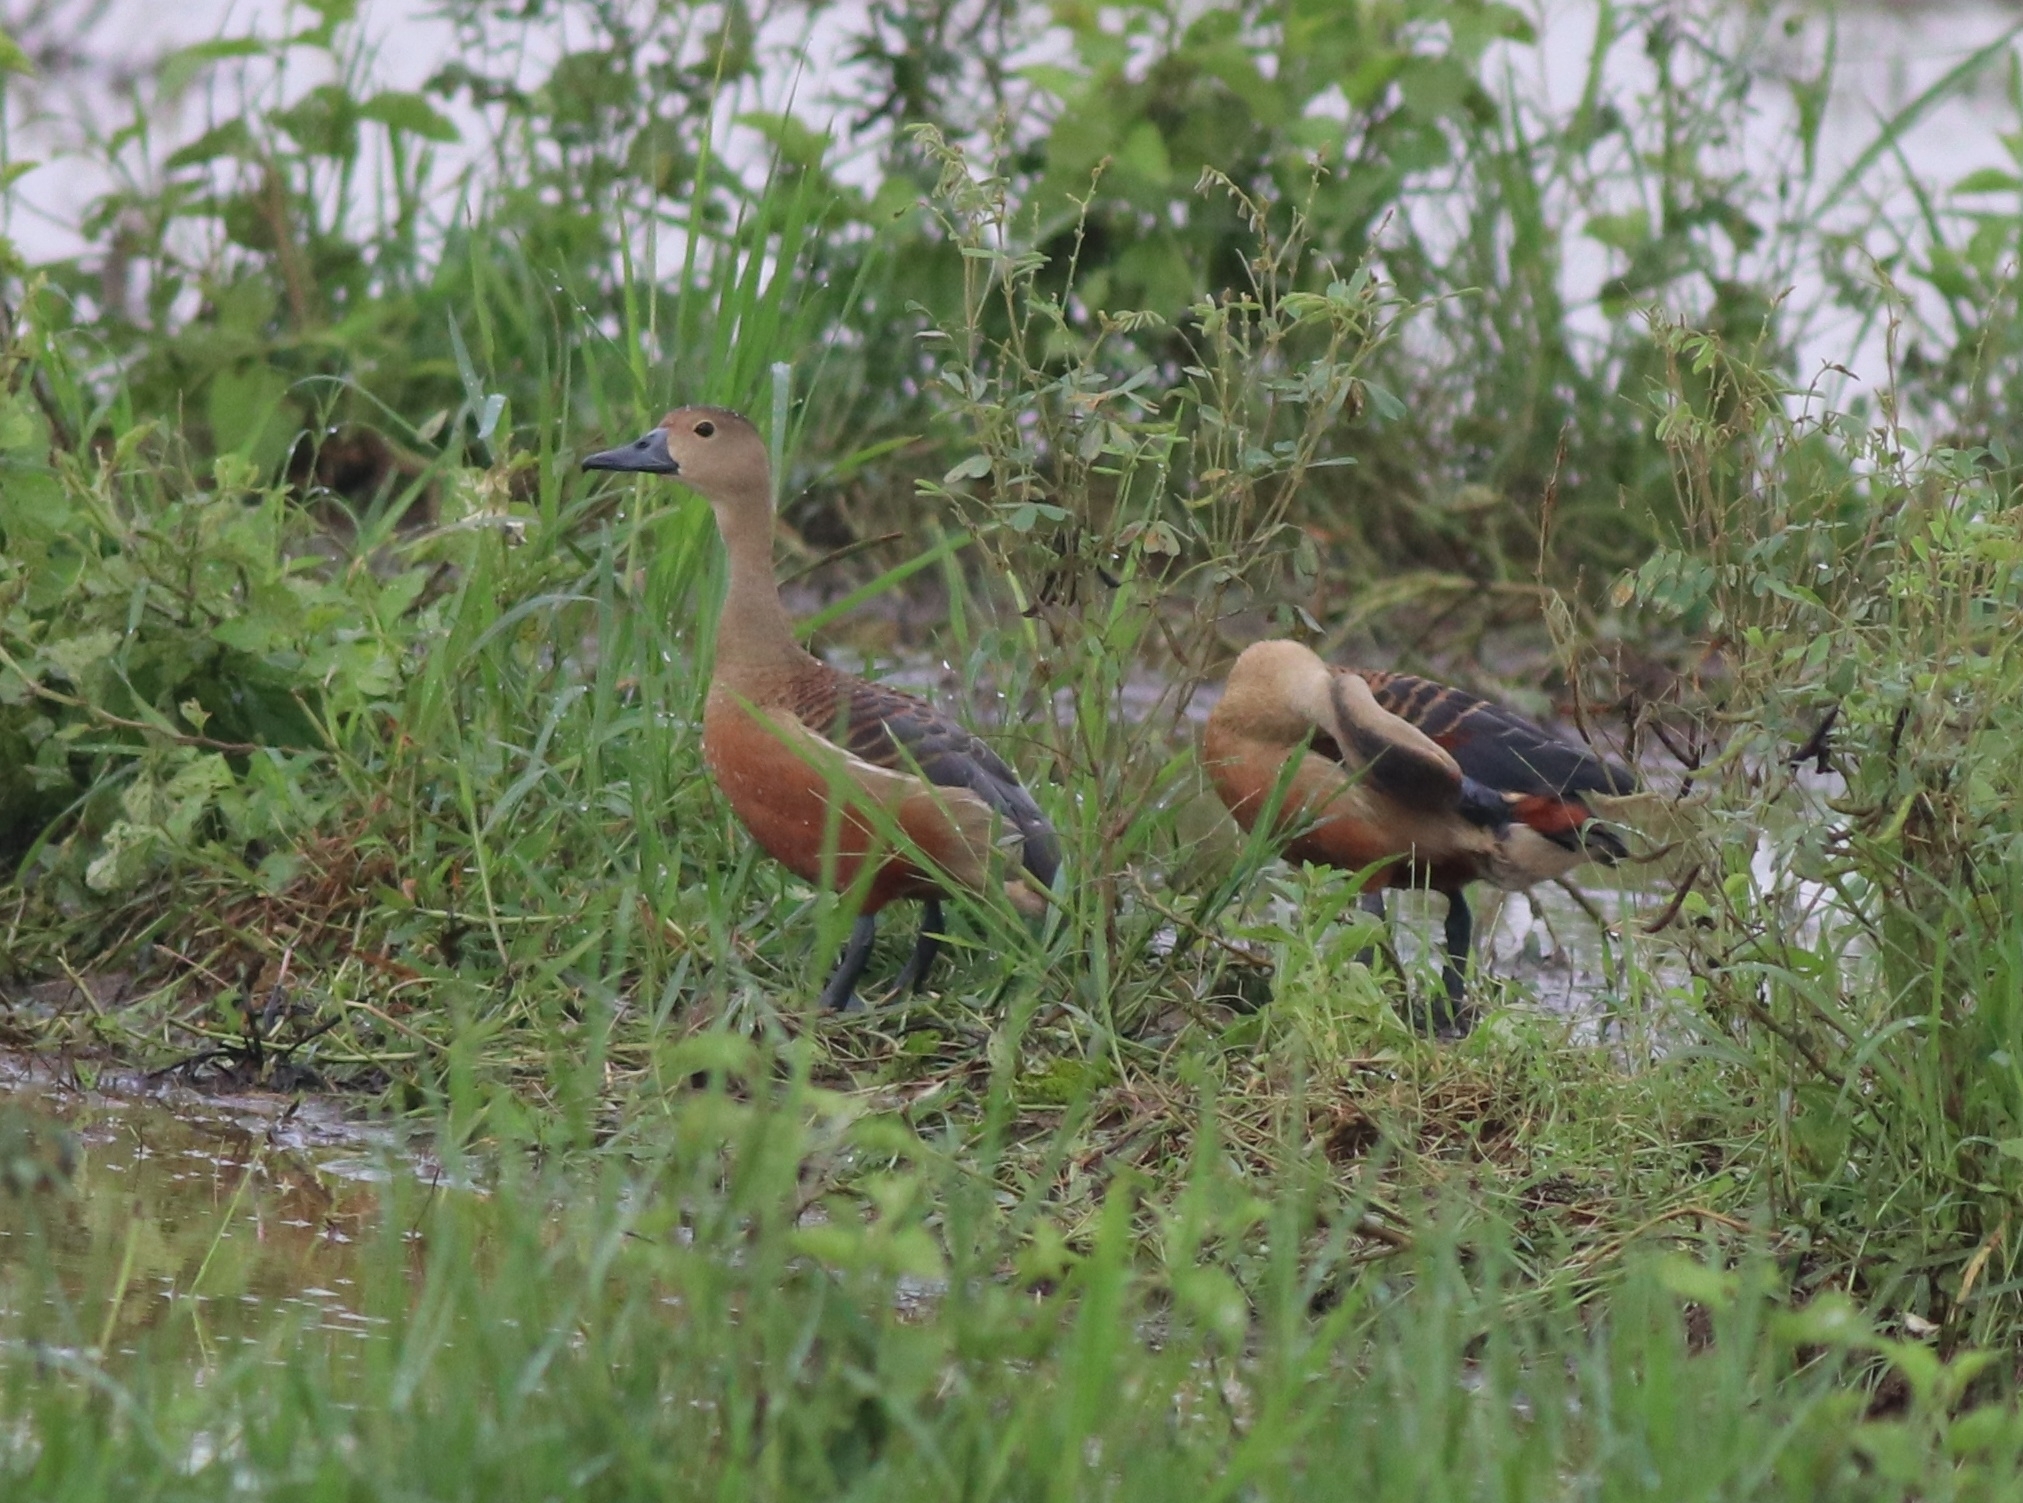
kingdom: Animalia
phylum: Chordata
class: Aves
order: Anseriformes
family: Anatidae
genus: Dendrocygna
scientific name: Dendrocygna javanica
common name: Lesser whistling-duck
